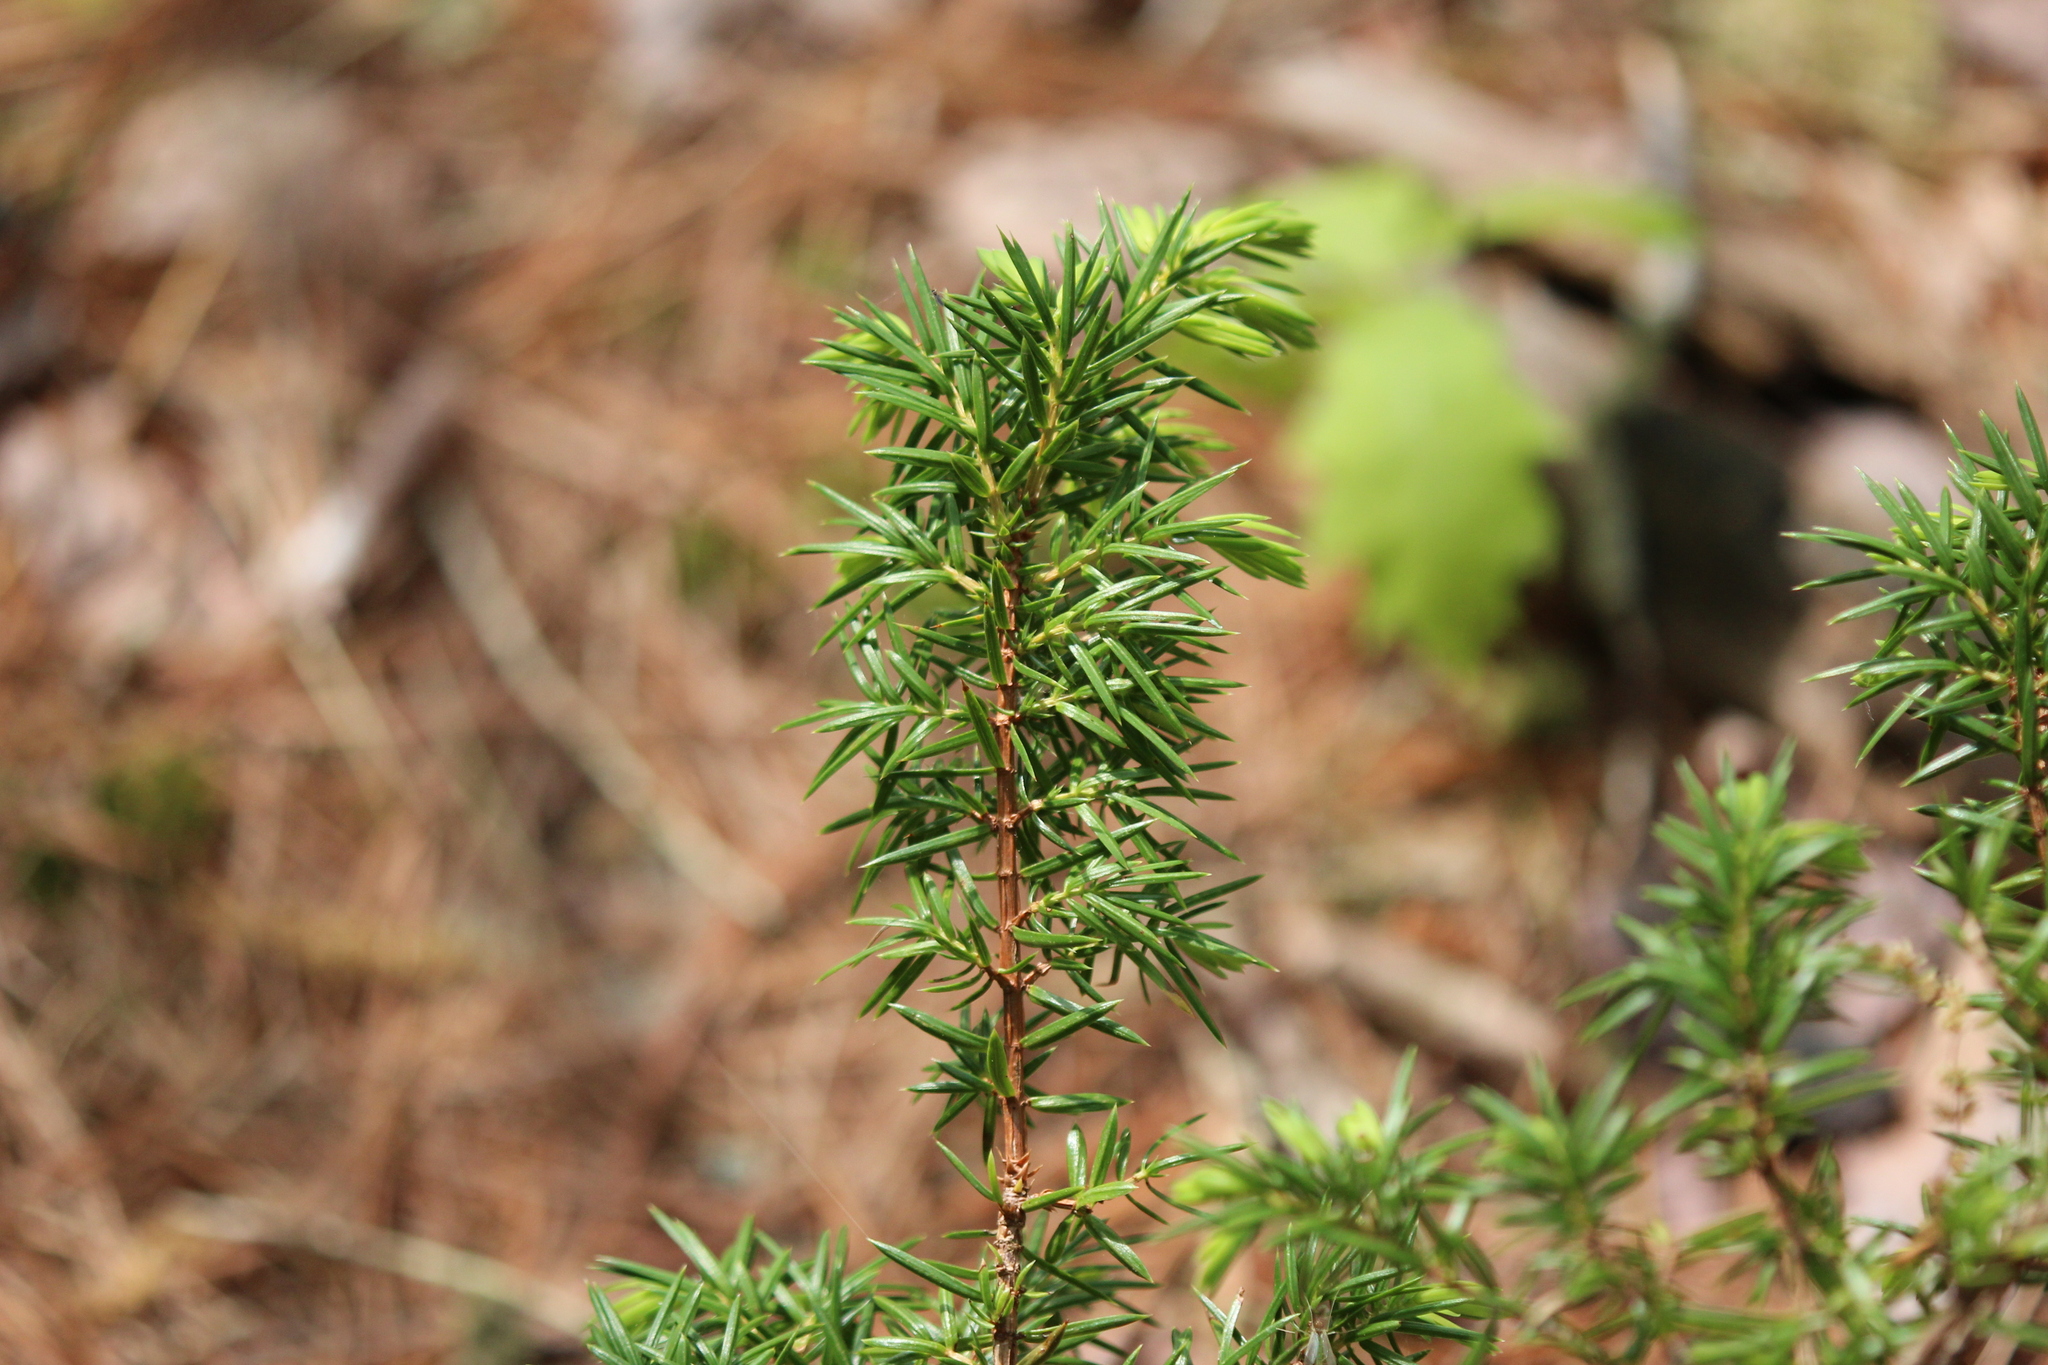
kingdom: Plantae
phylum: Tracheophyta
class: Pinopsida
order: Pinales
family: Cupressaceae
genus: Juniperus
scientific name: Juniperus communis
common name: Common juniper
